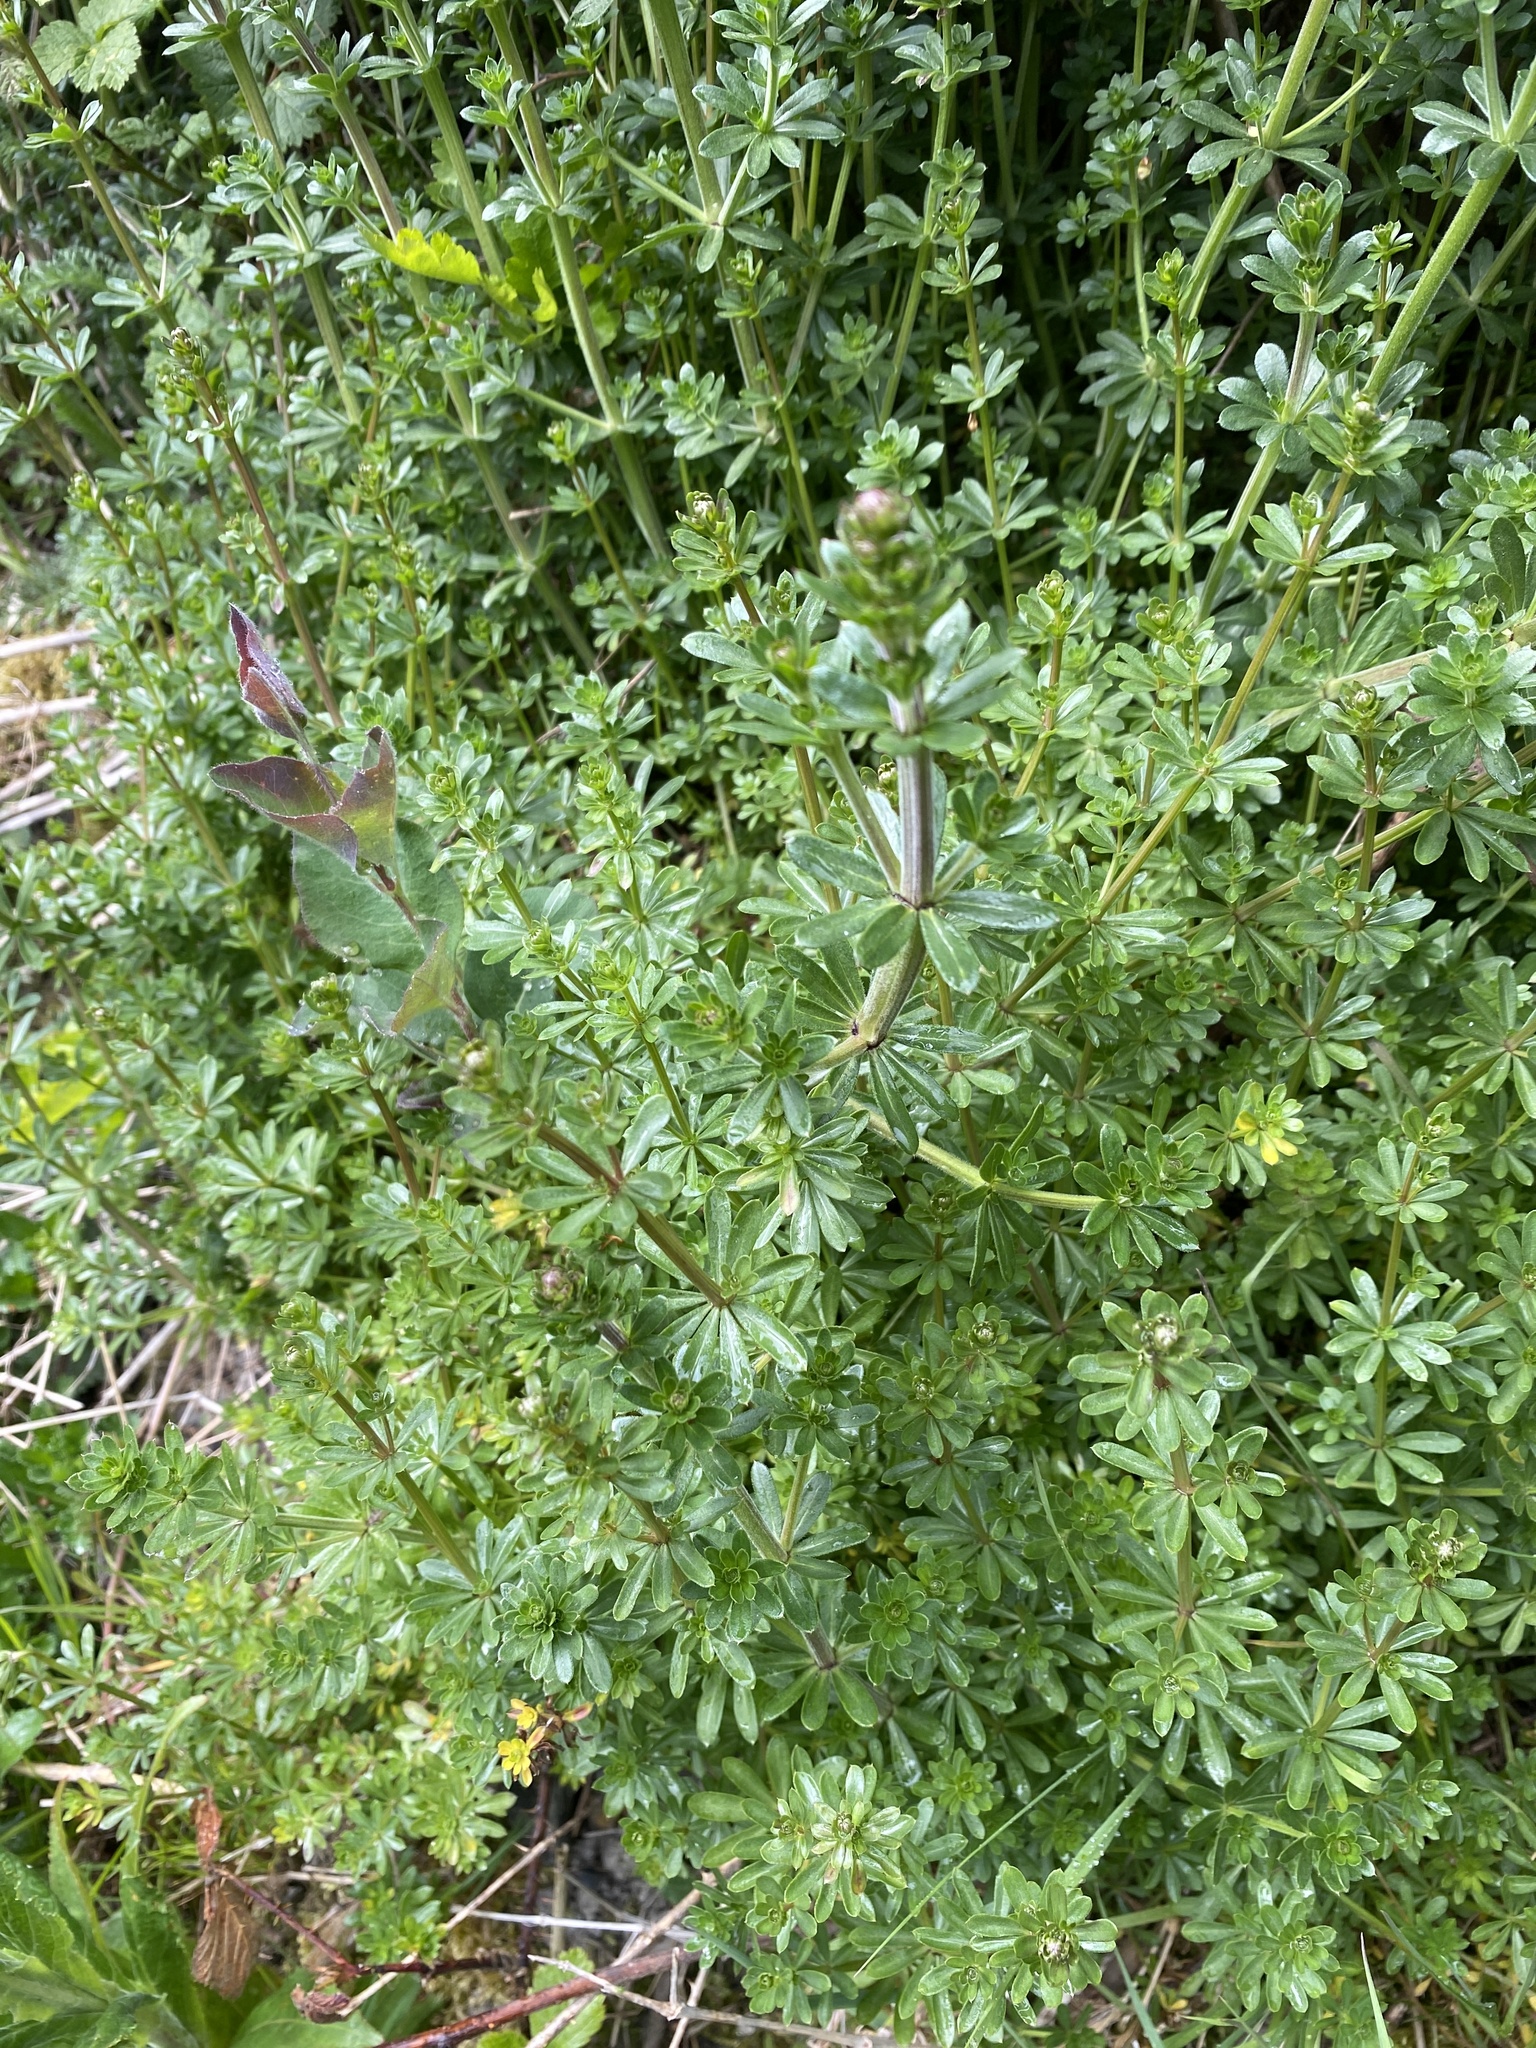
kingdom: Plantae
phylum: Tracheophyta
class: Magnoliopsida
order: Gentianales
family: Rubiaceae
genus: Galium
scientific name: Galium mollugo
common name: Hedge bedstraw
